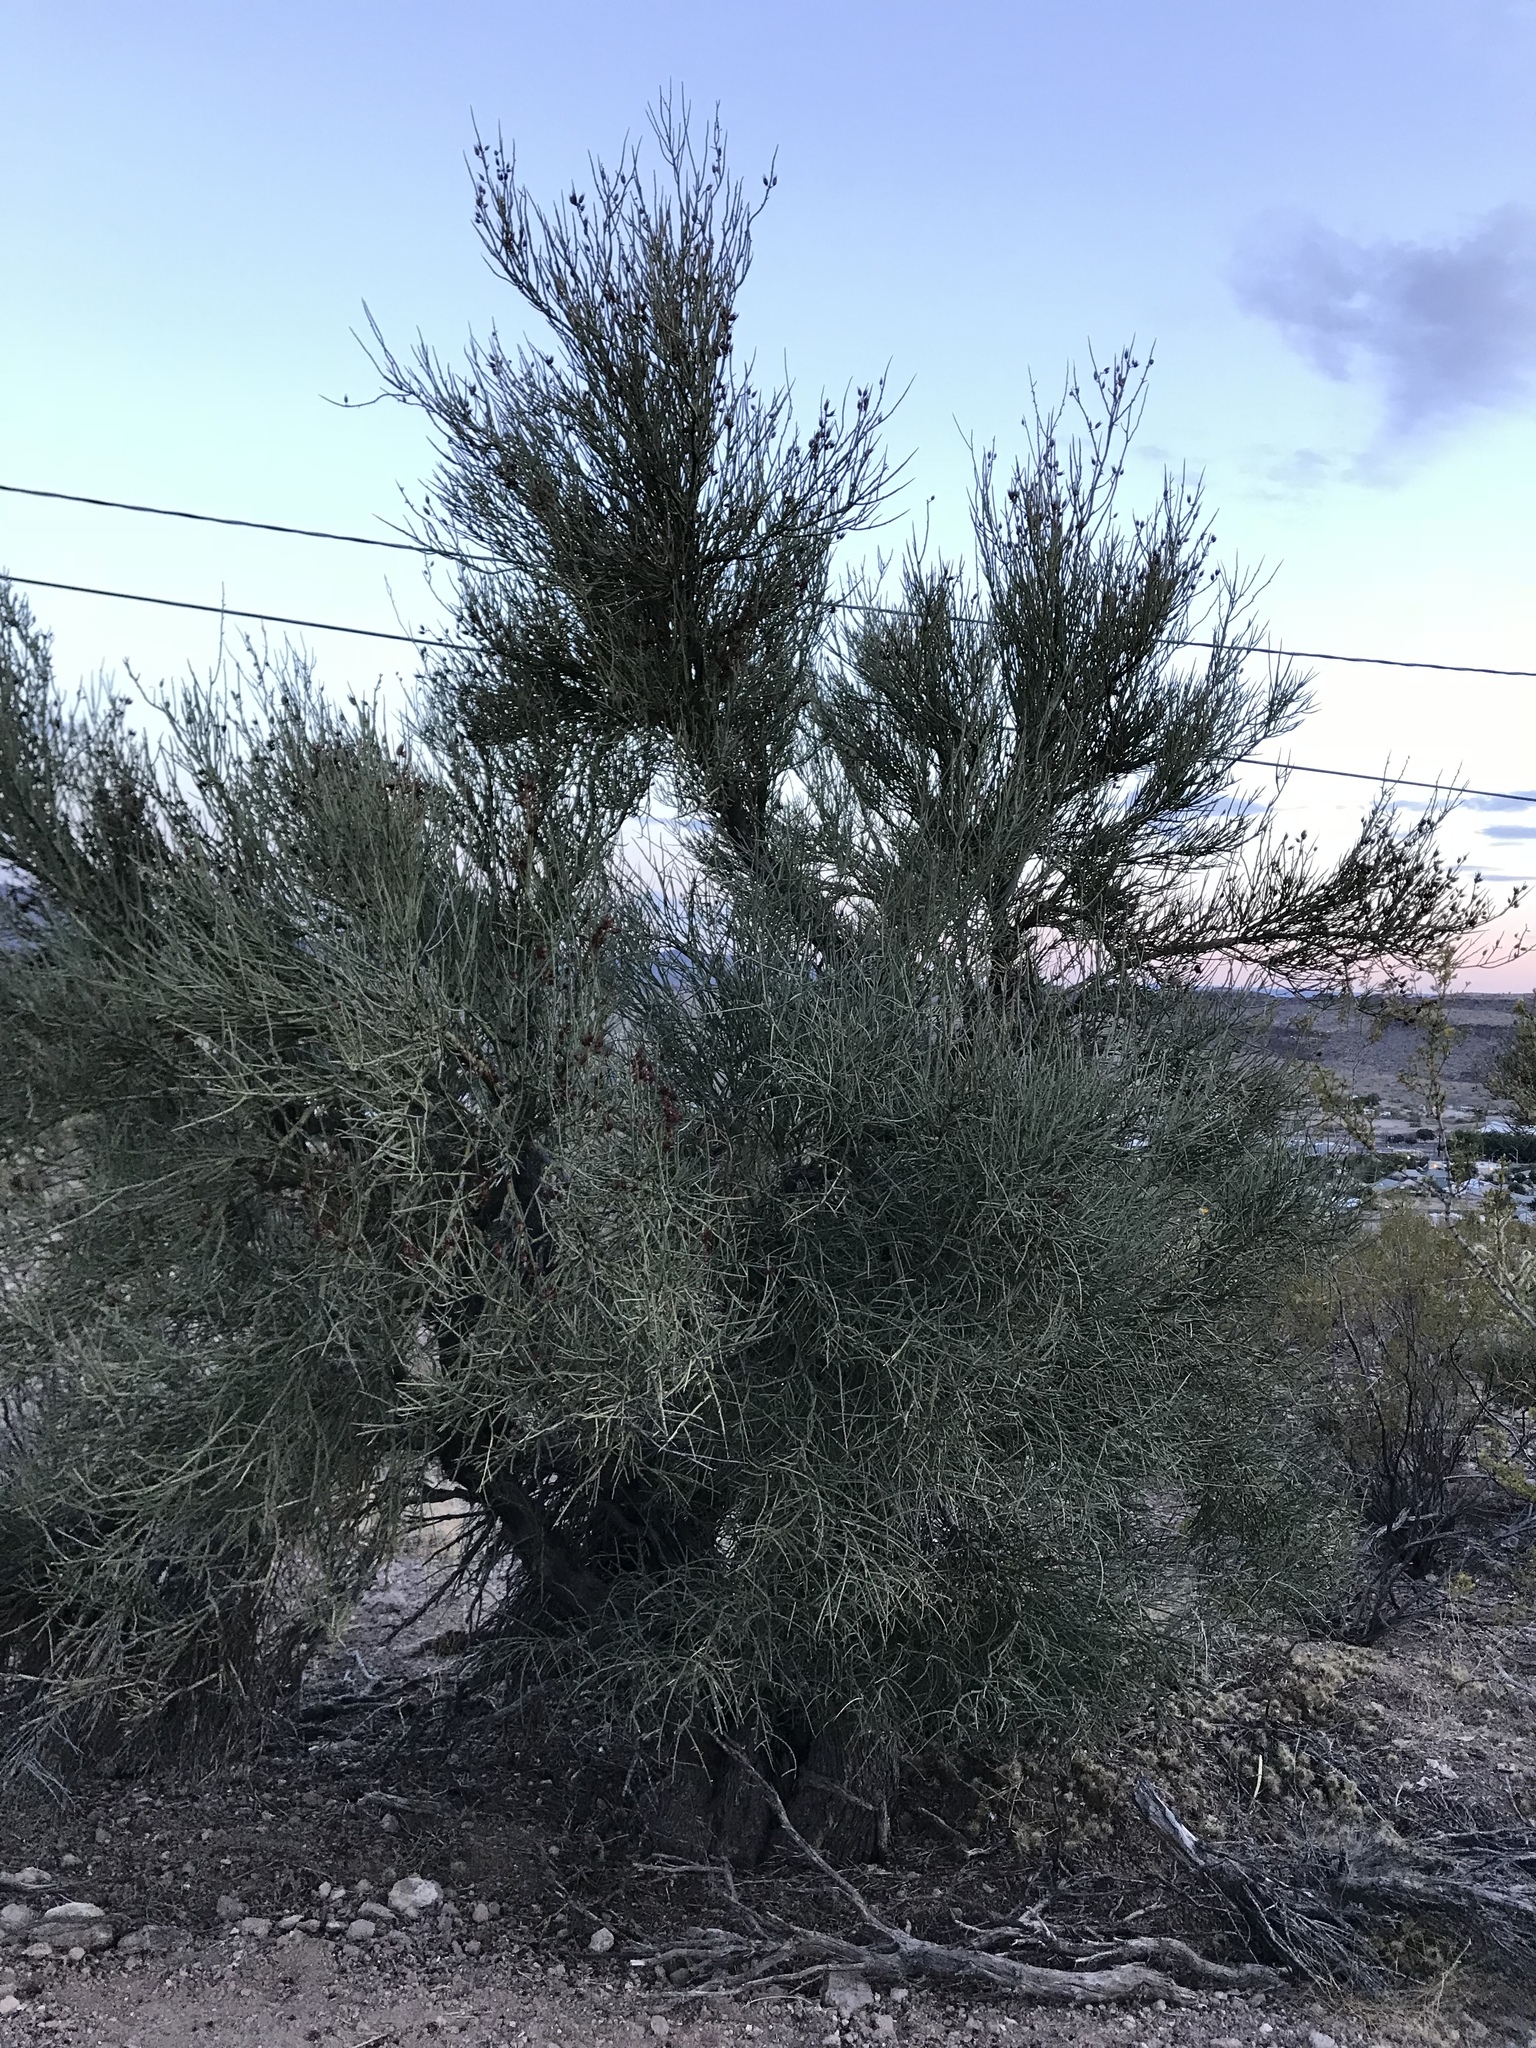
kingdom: Plantae
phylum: Tracheophyta
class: Magnoliopsida
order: Celastrales
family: Celastraceae
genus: Canotia
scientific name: Canotia holacantha
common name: Crucifixion thorns
